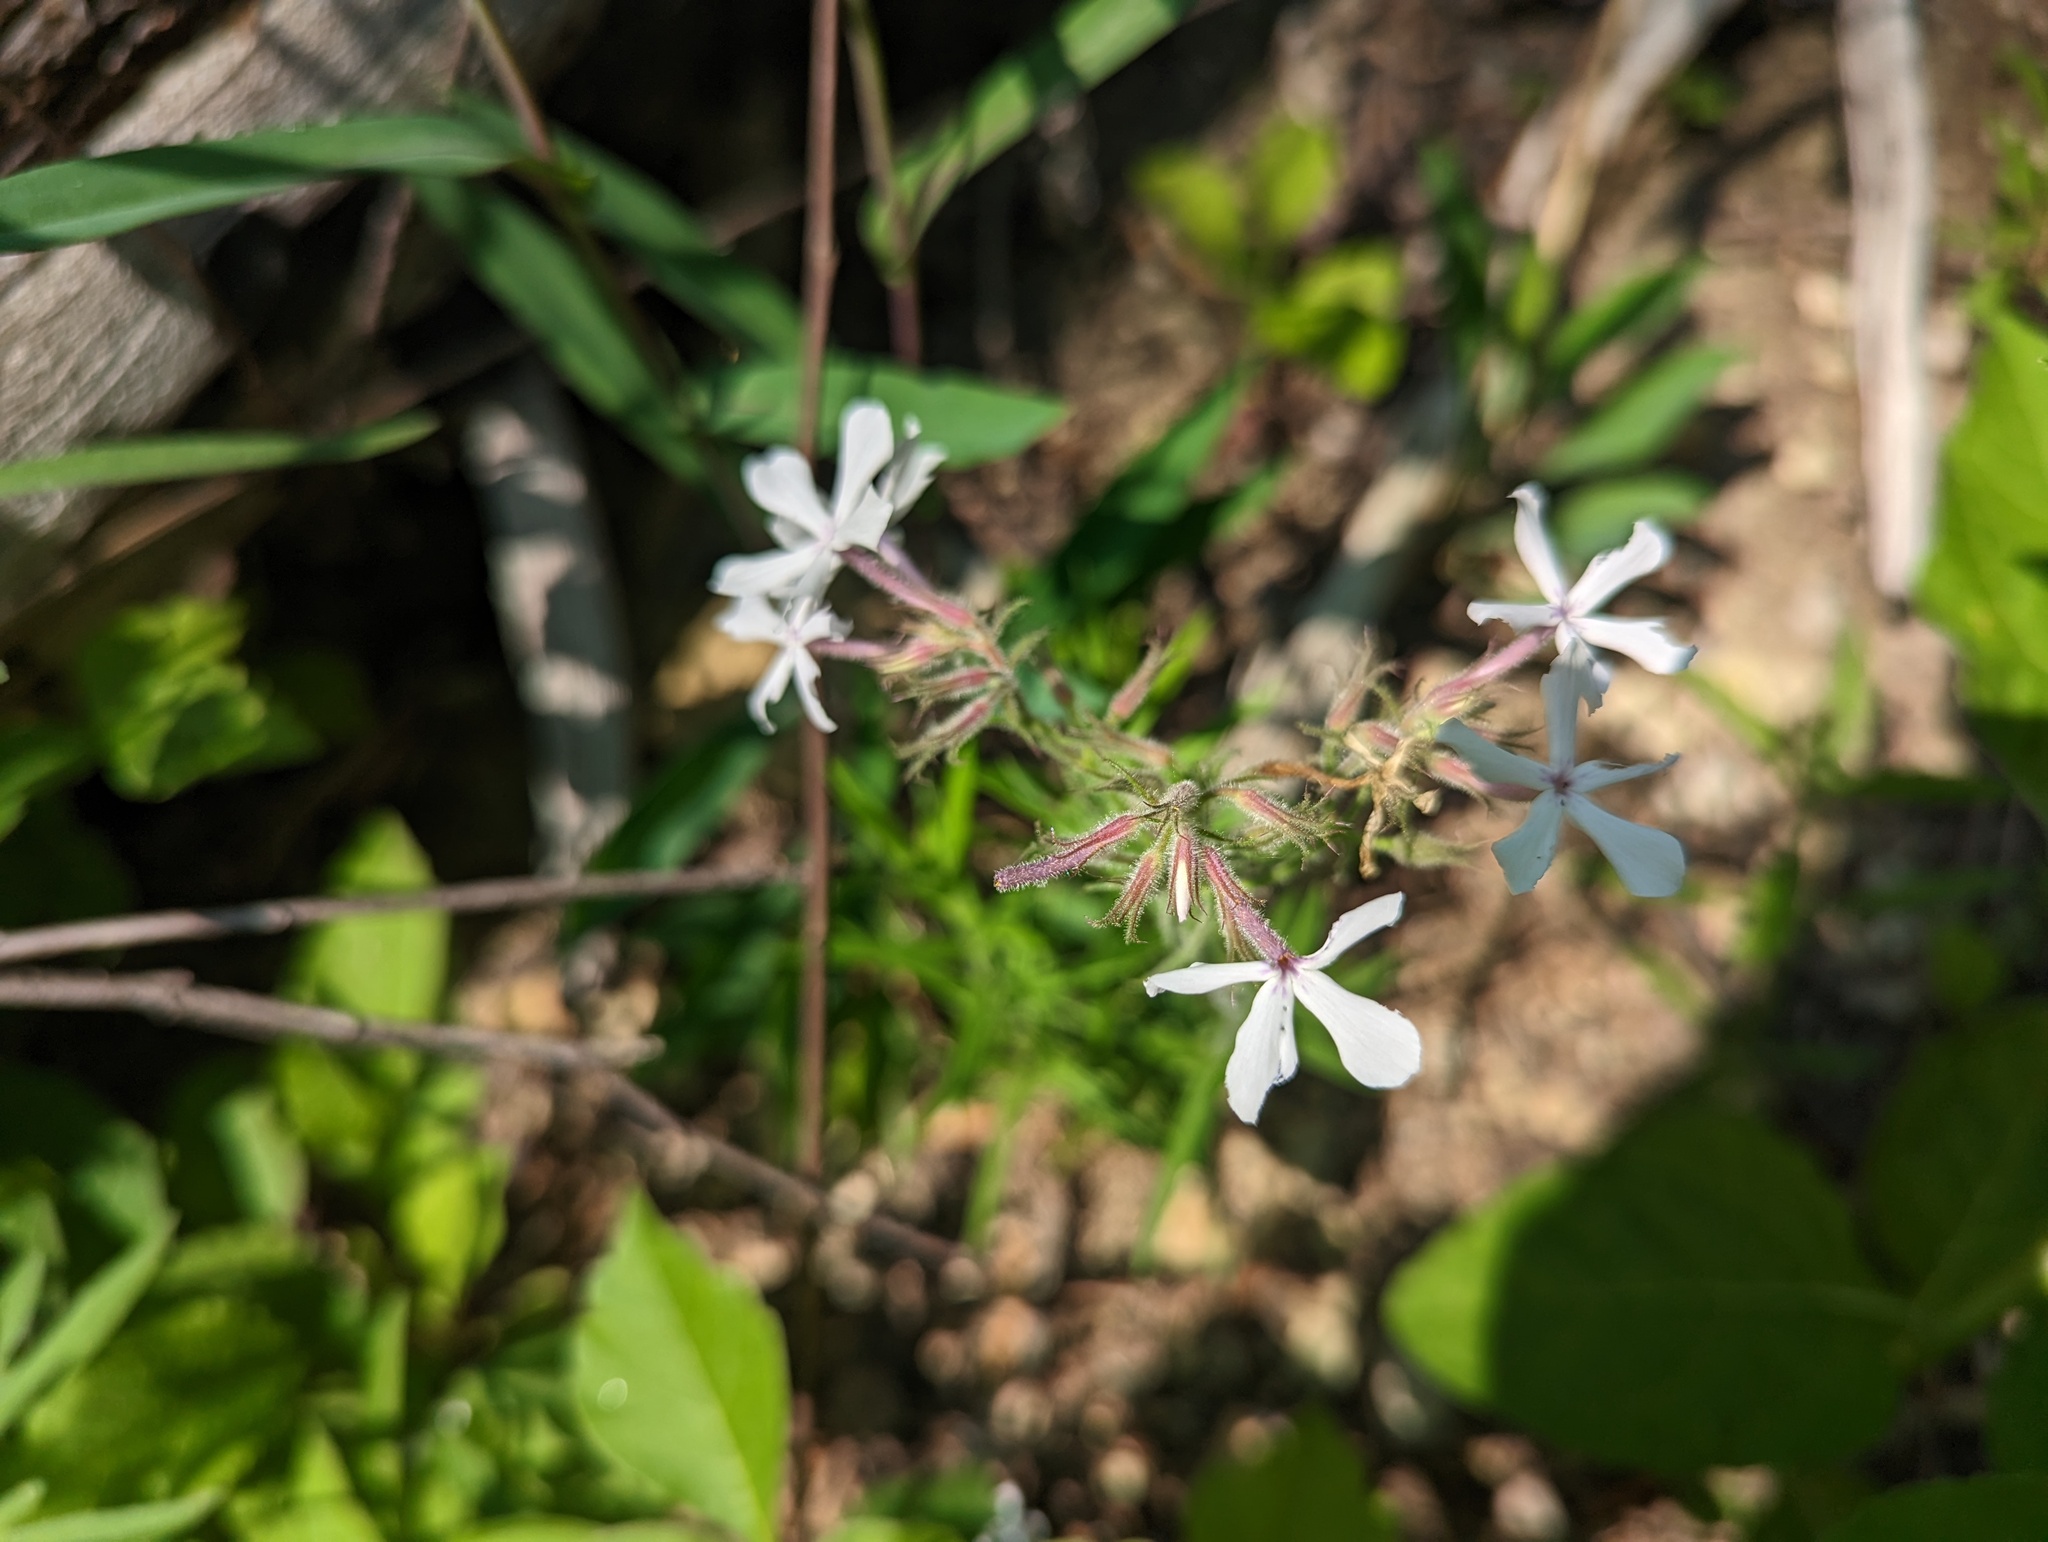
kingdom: Plantae
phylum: Tracheophyta
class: Magnoliopsida
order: Ericales
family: Polemoniaceae
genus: Phlox
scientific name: Phlox pilosa
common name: Prairie phlox
